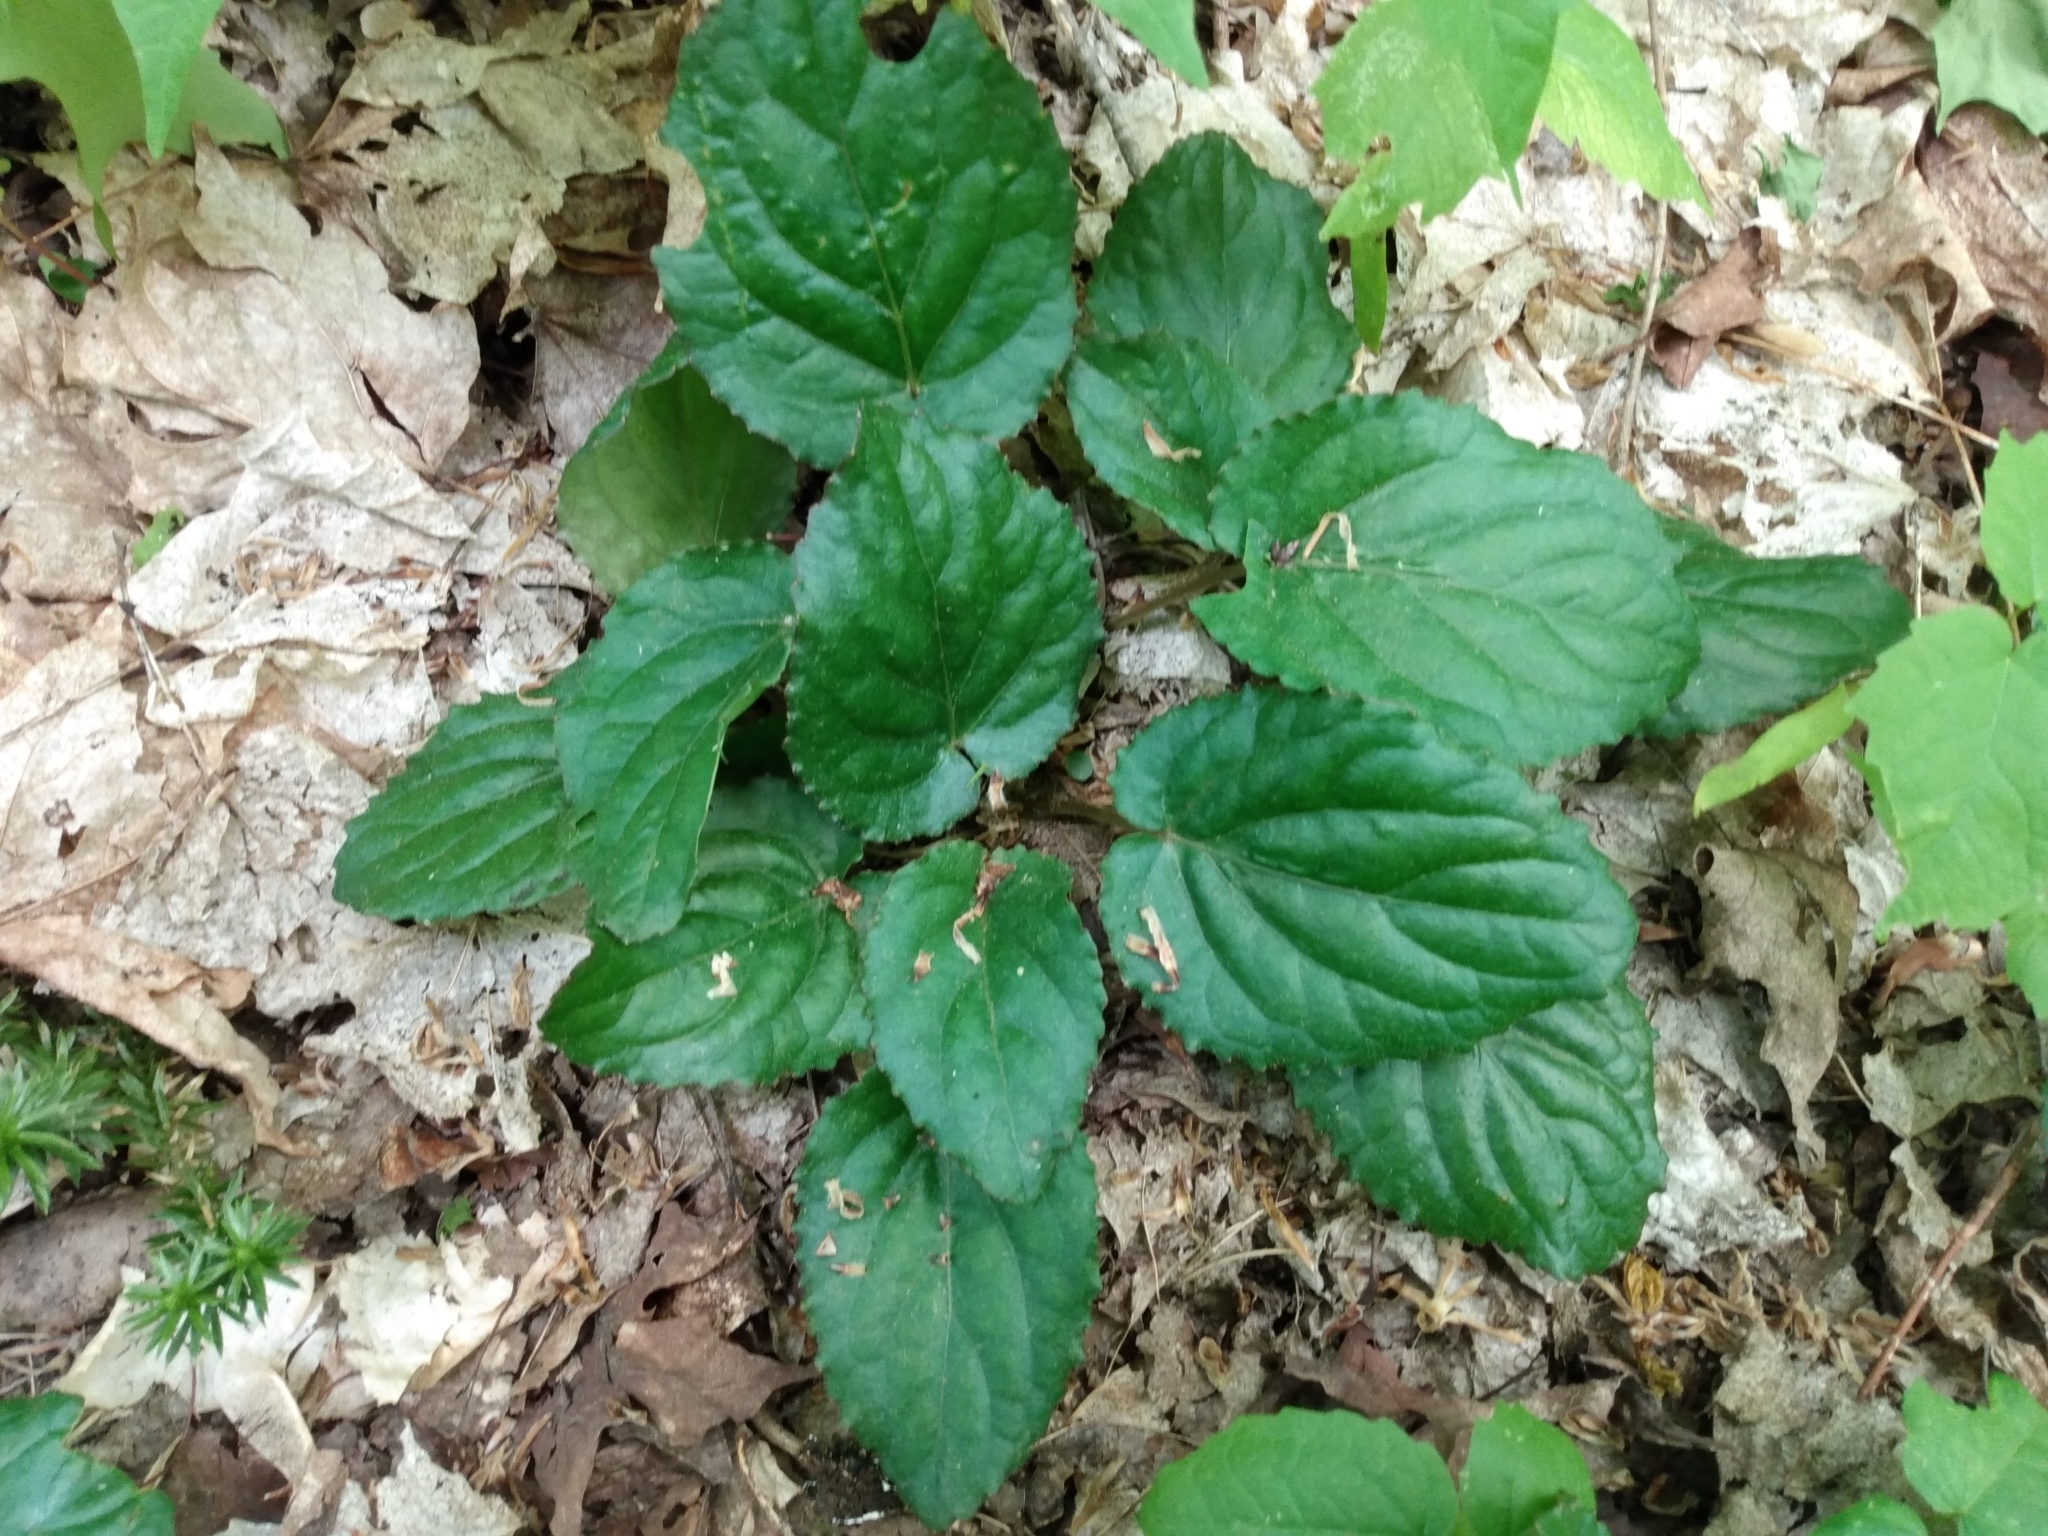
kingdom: Plantae
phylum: Tracheophyta
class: Magnoliopsida
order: Malpighiales
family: Violaceae
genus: Viola
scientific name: Viola rotundifolia
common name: Early yellow violet
